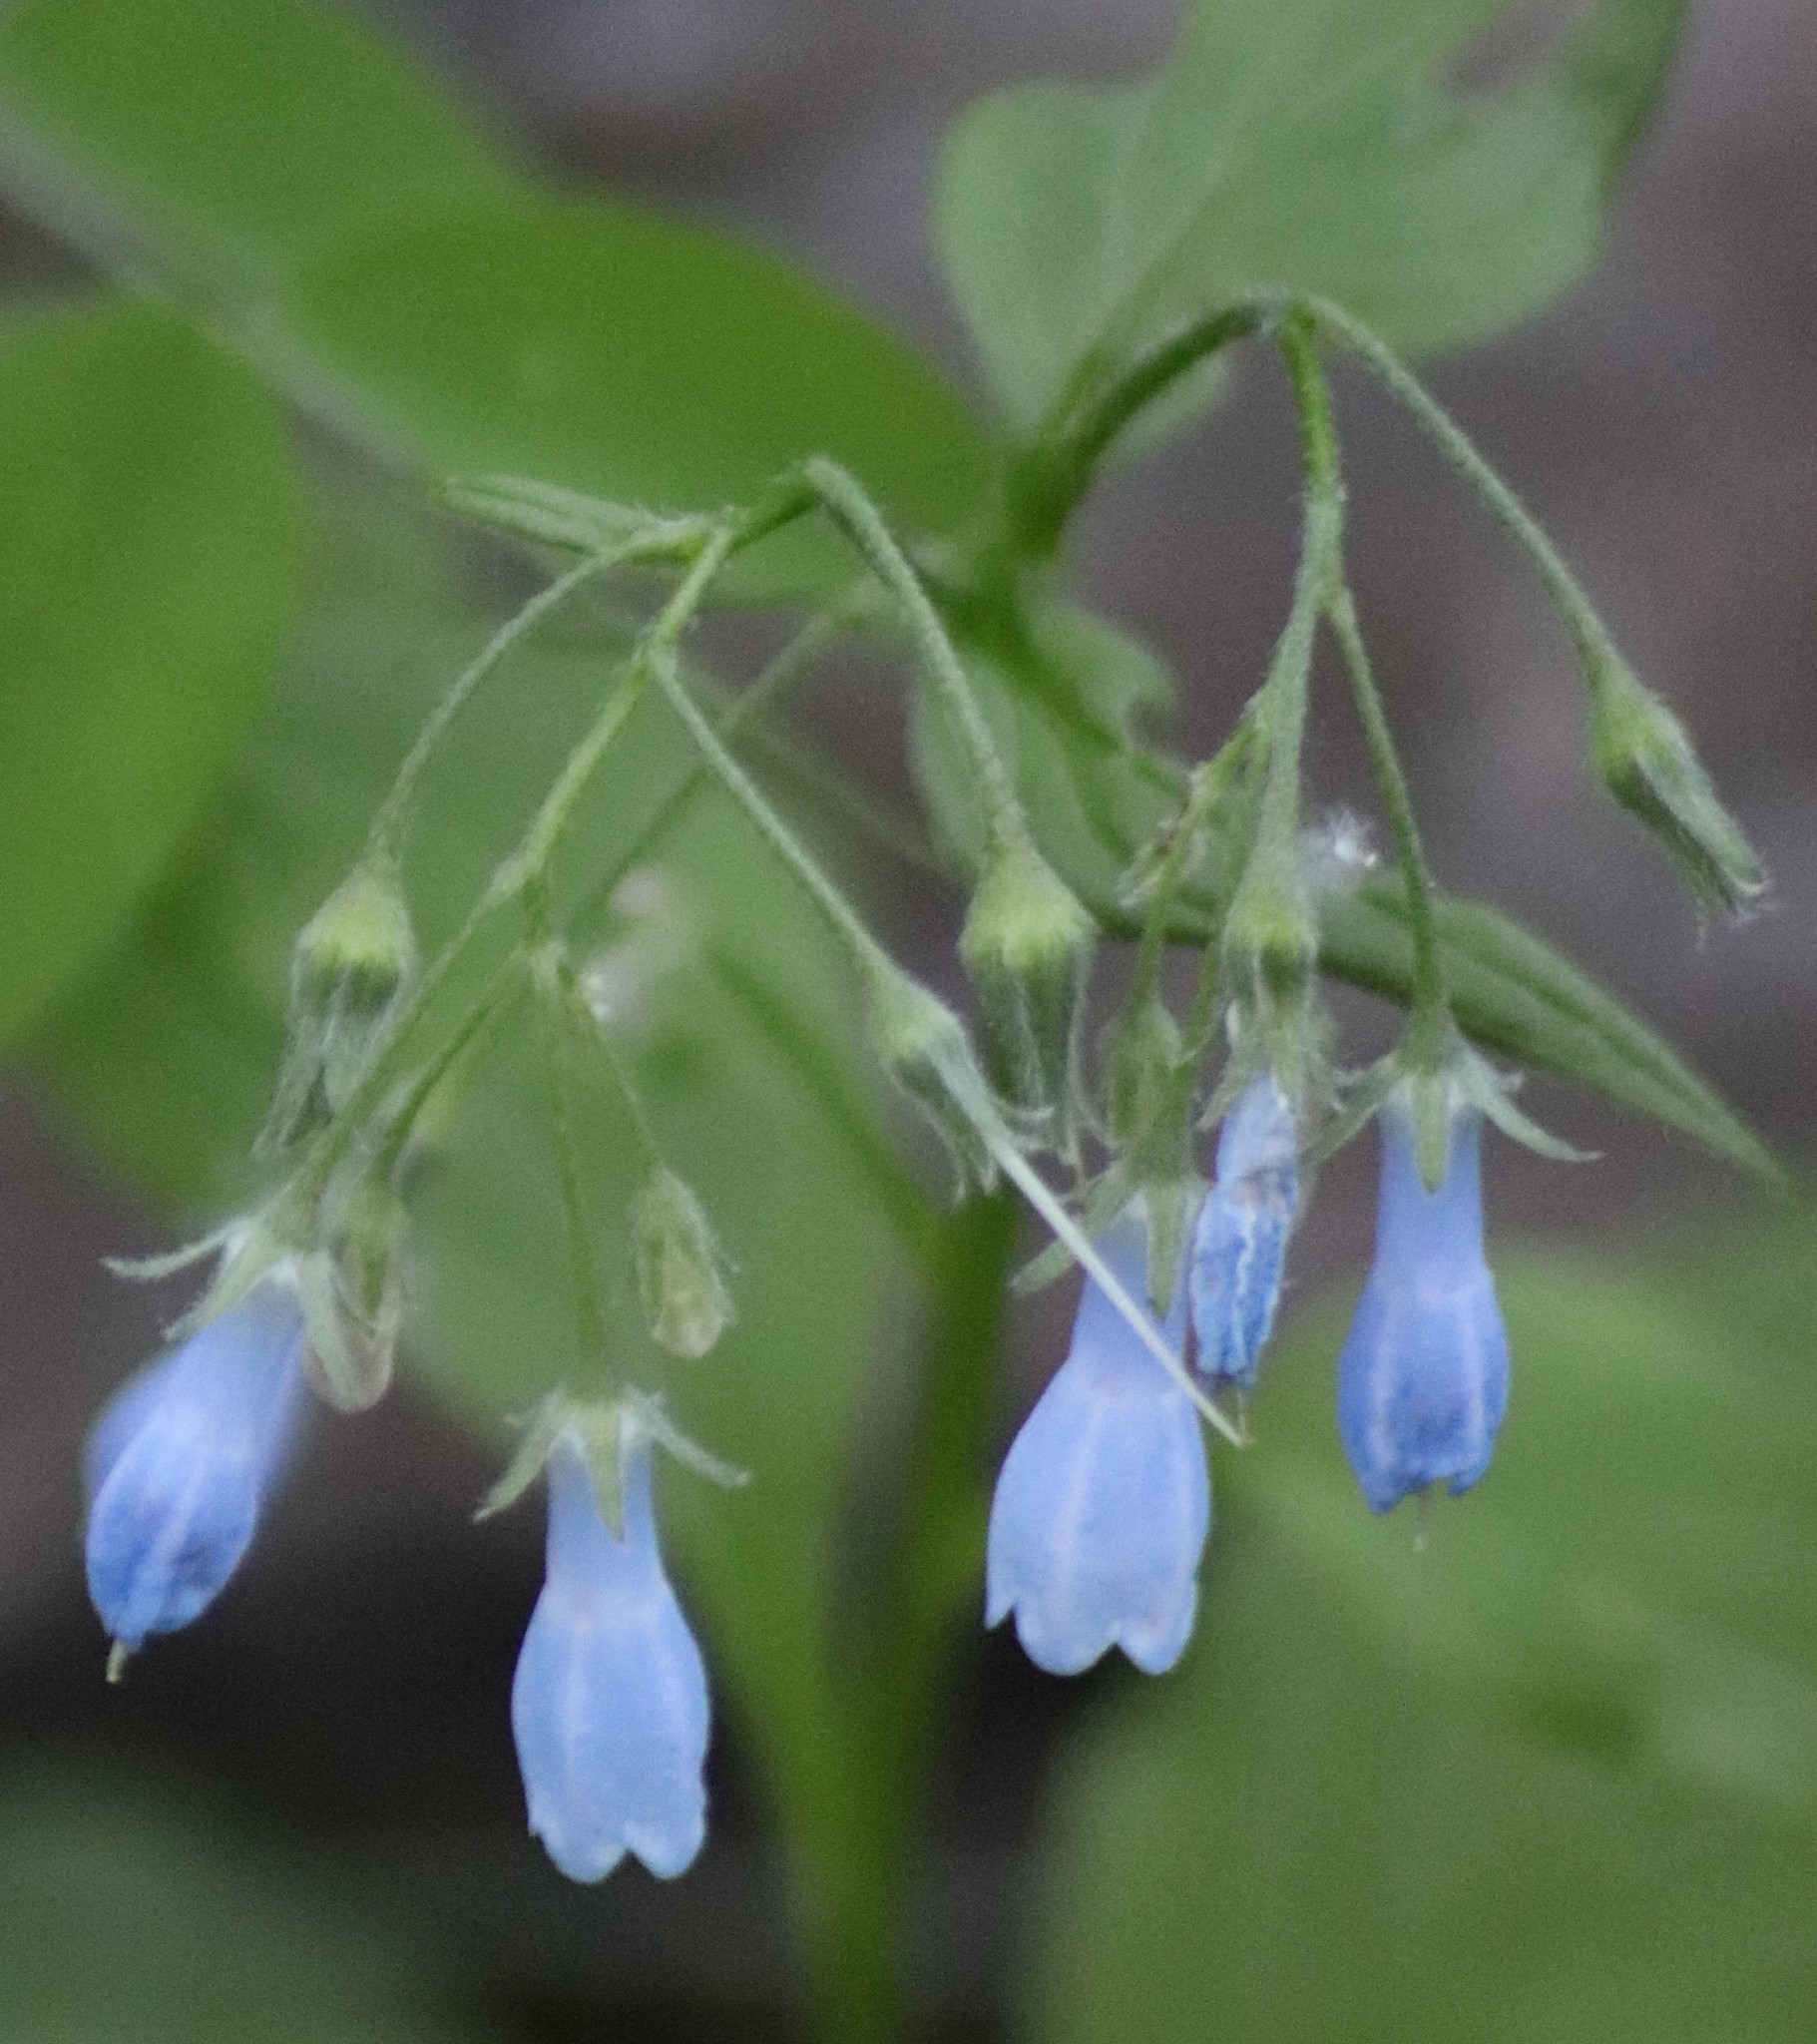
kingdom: Plantae
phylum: Tracheophyta
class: Magnoliopsida
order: Boraginales
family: Boraginaceae
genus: Mertensia
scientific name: Mertensia paniculata
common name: Panicled bluebells
